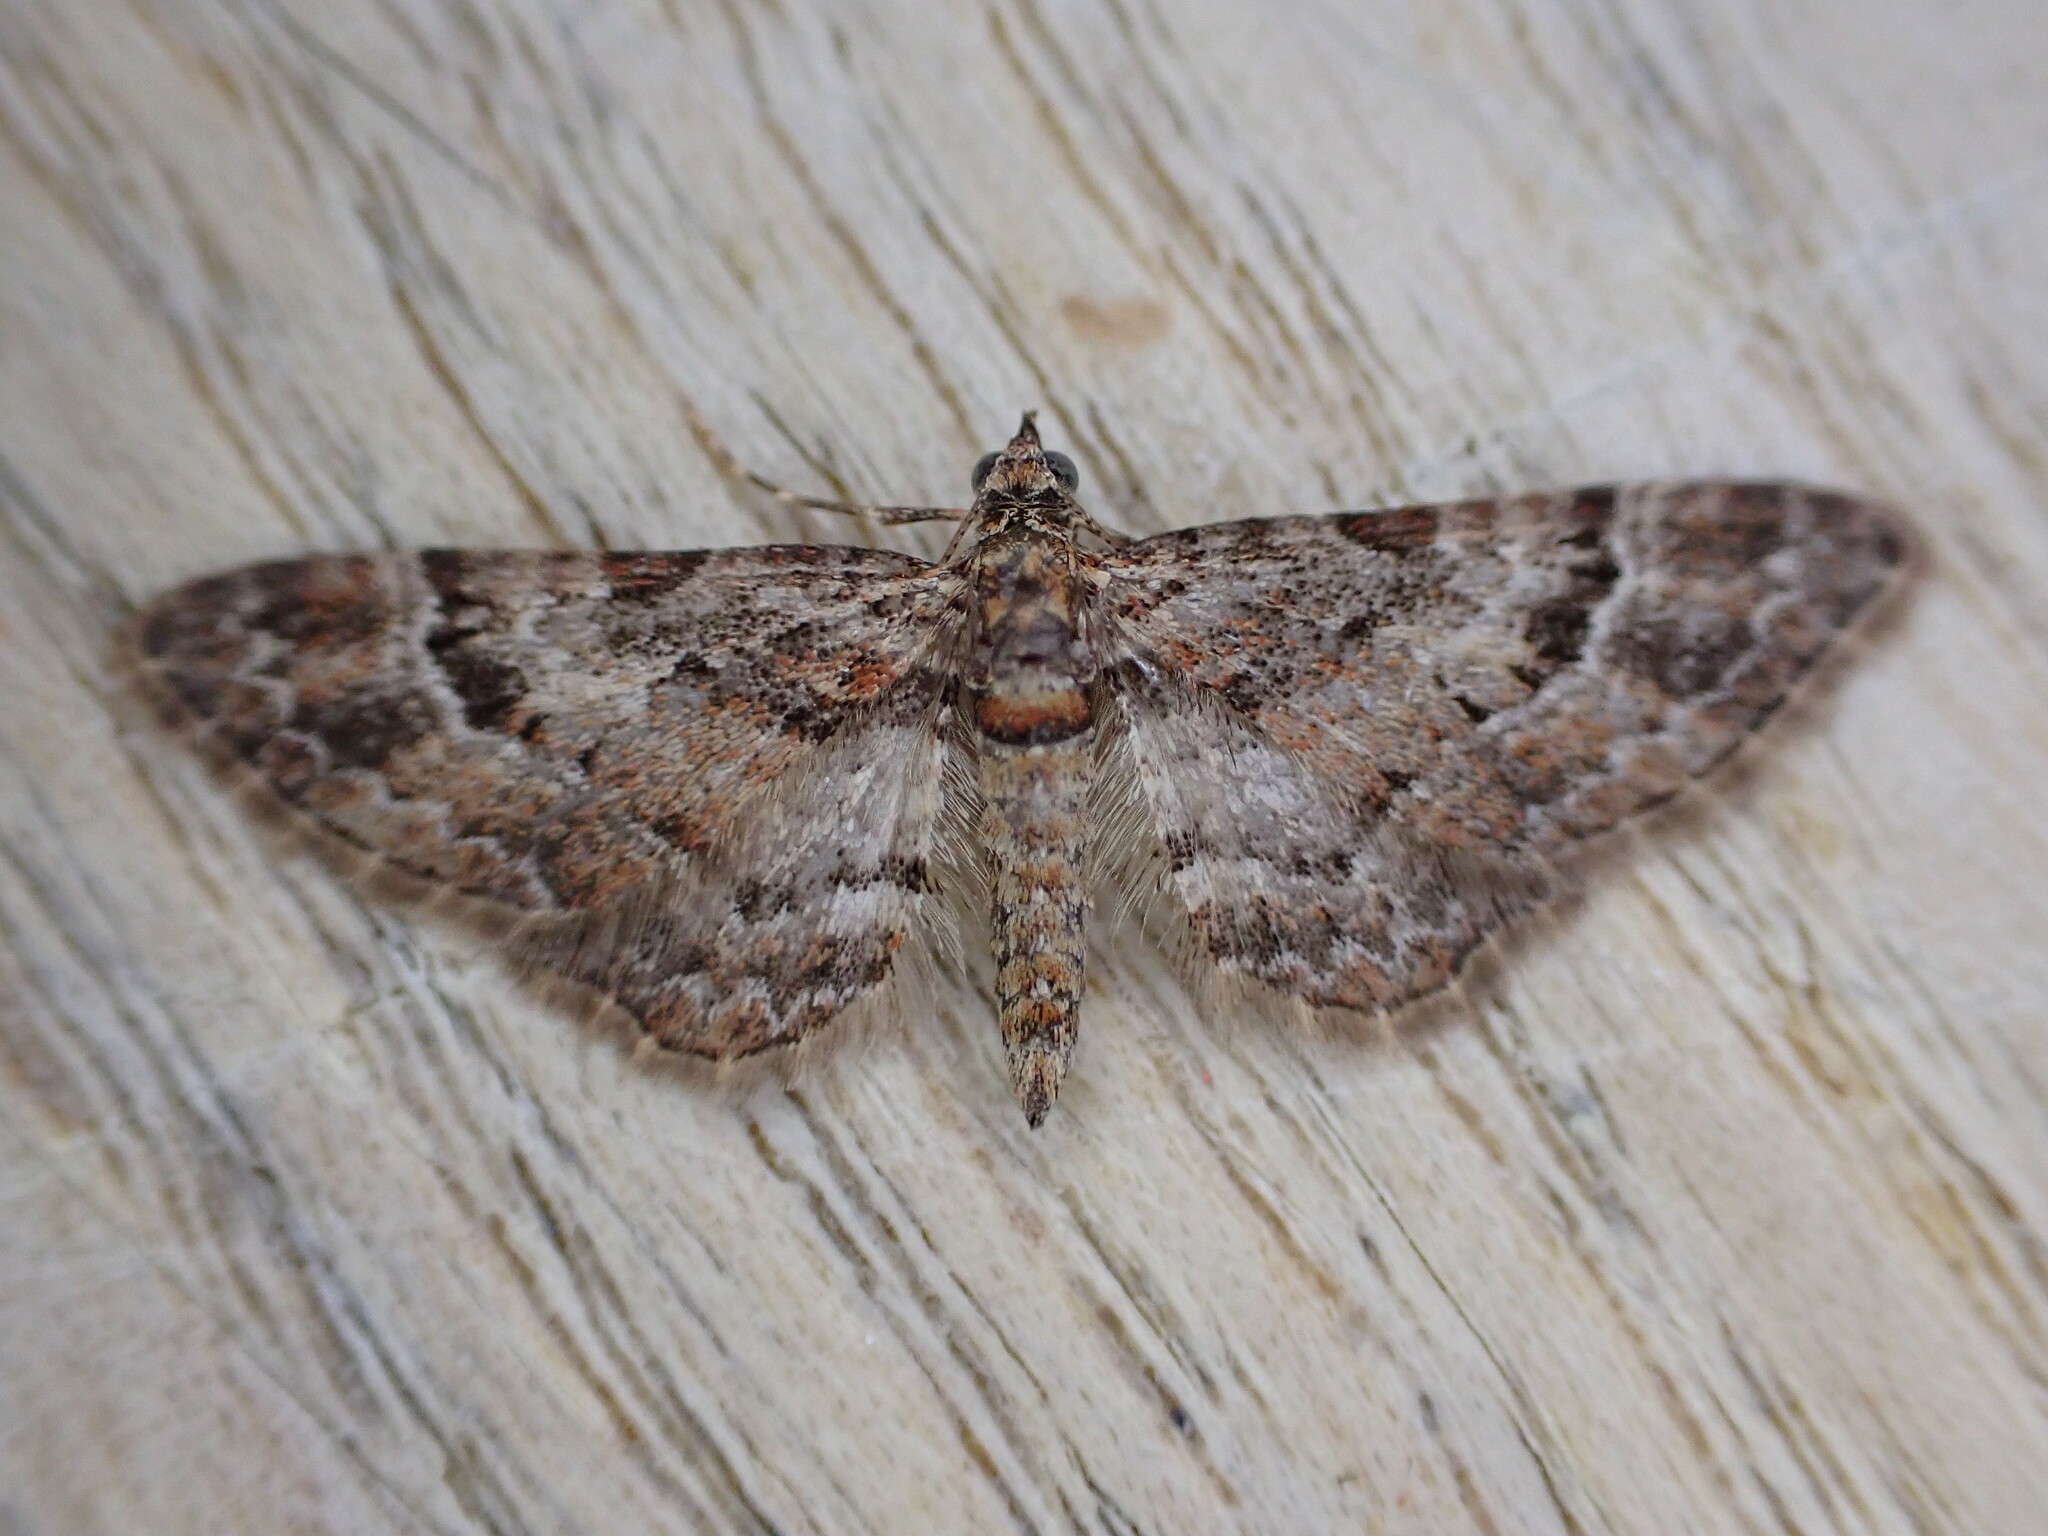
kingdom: Animalia
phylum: Arthropoda
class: Insecta
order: Lepidoptera
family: Geometridae
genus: Gymnoscelis
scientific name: Gymnoscelis rufifasciata
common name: Double-striped pug
